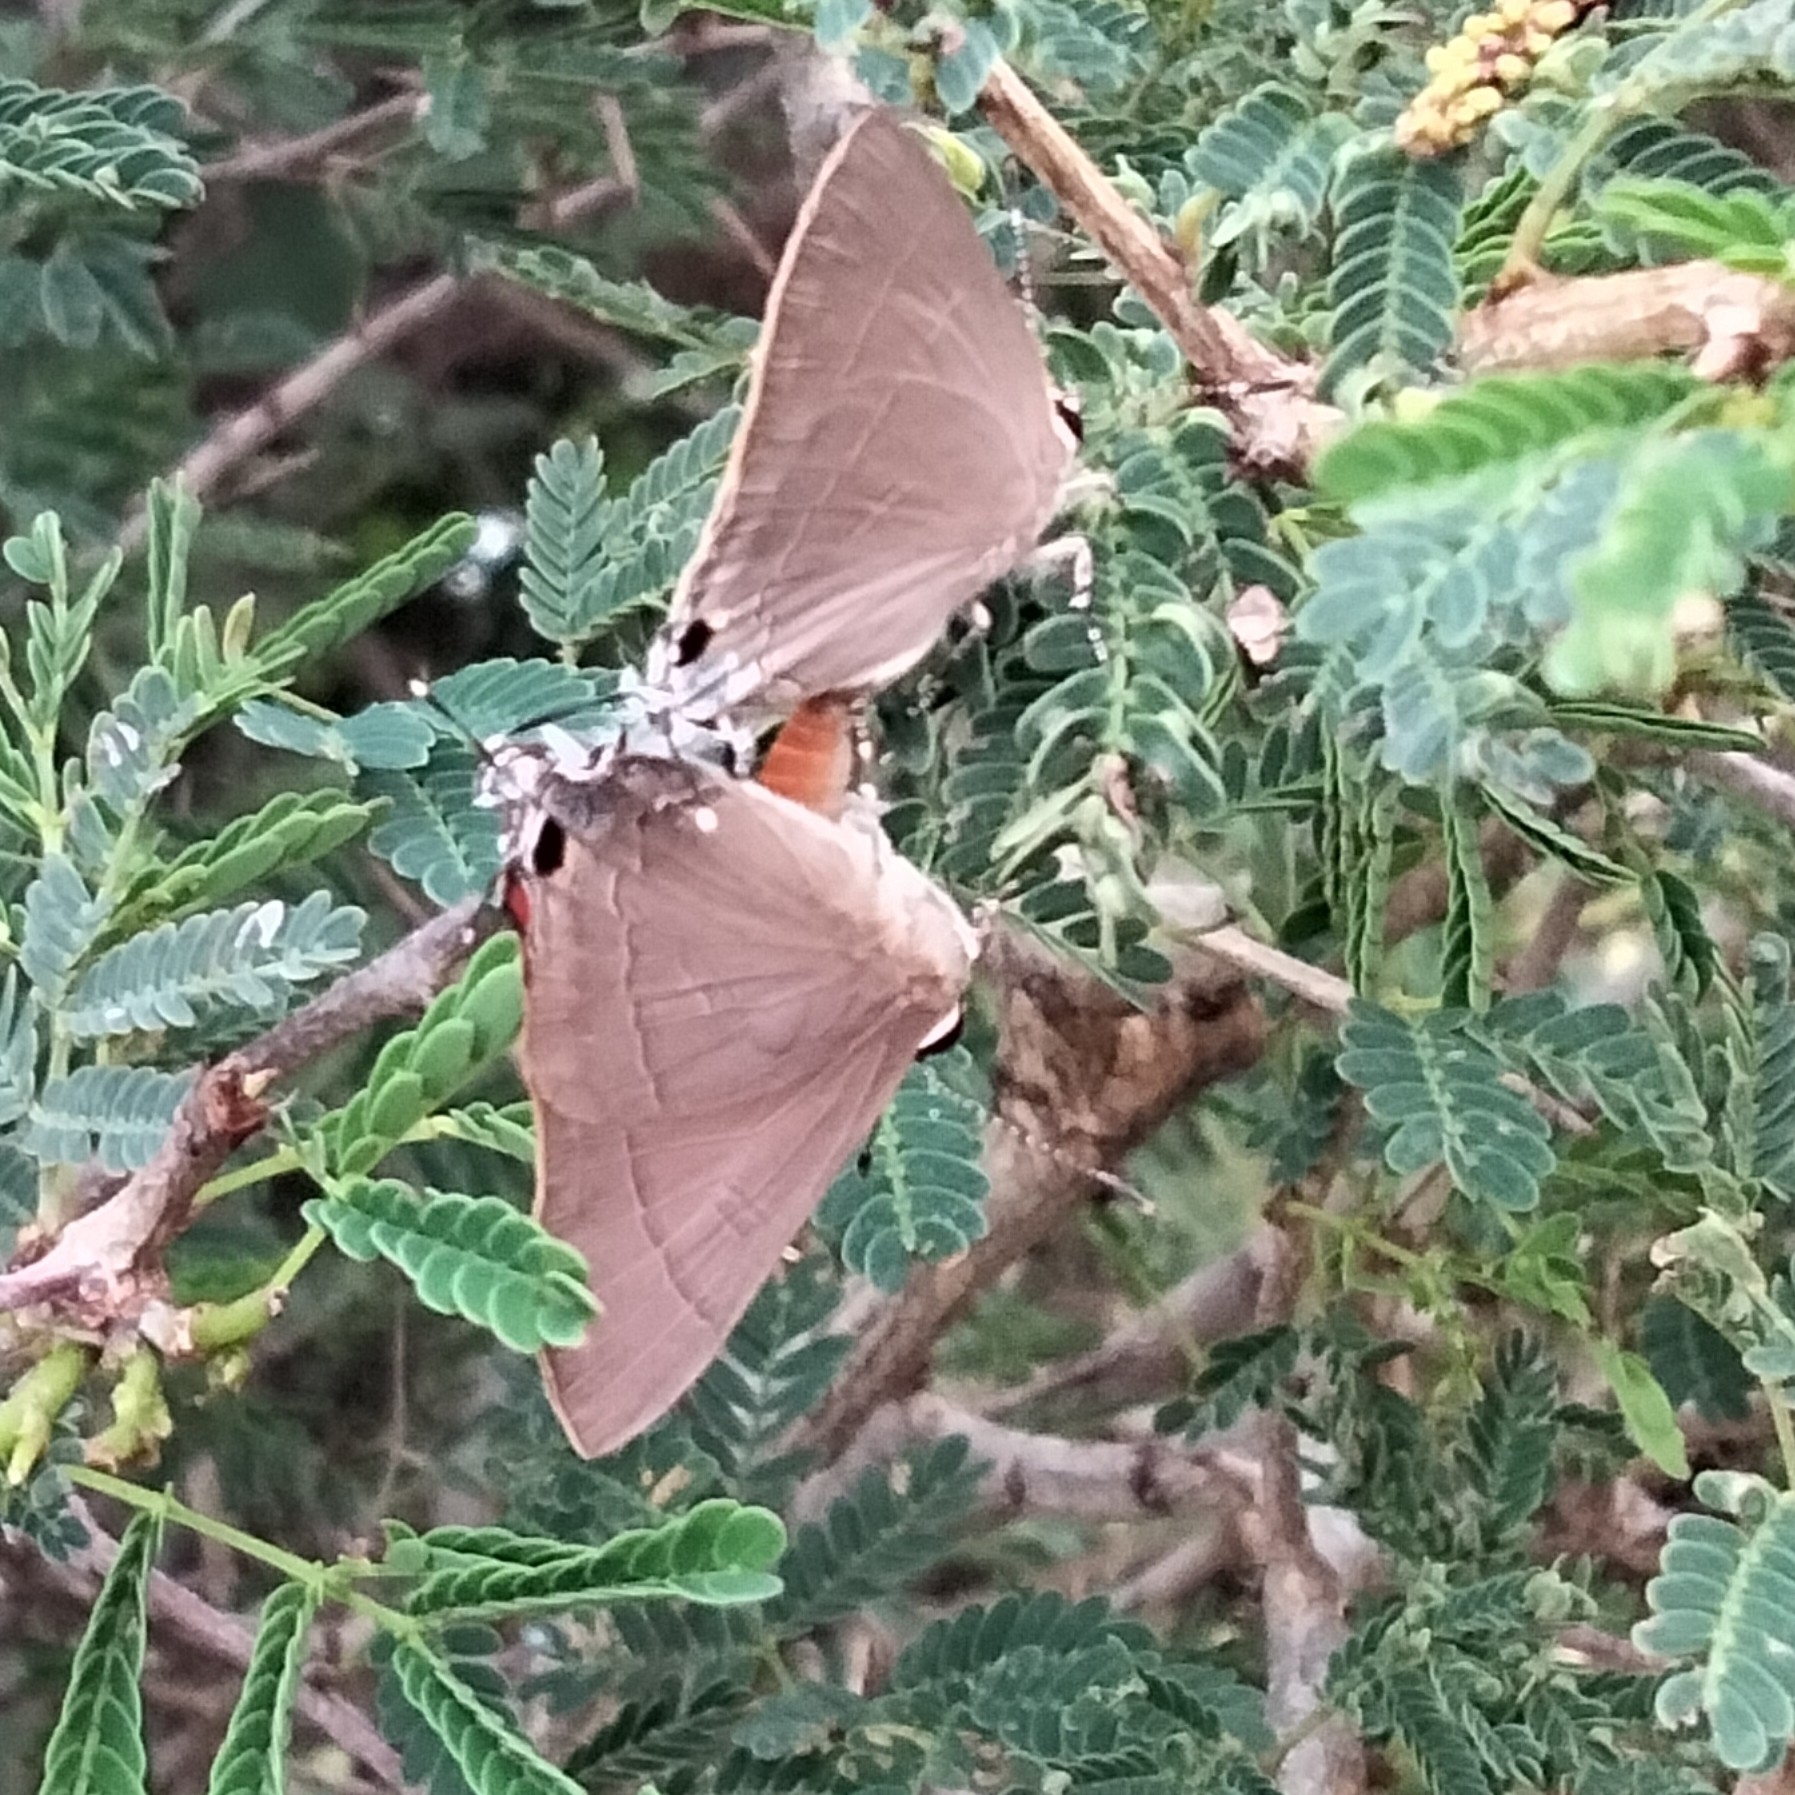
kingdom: Animalia
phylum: Arthropoda
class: Insecta
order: Lepidoptera
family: Lycaenidae
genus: Rapala
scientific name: Rapala iarbus
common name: Common red flash
